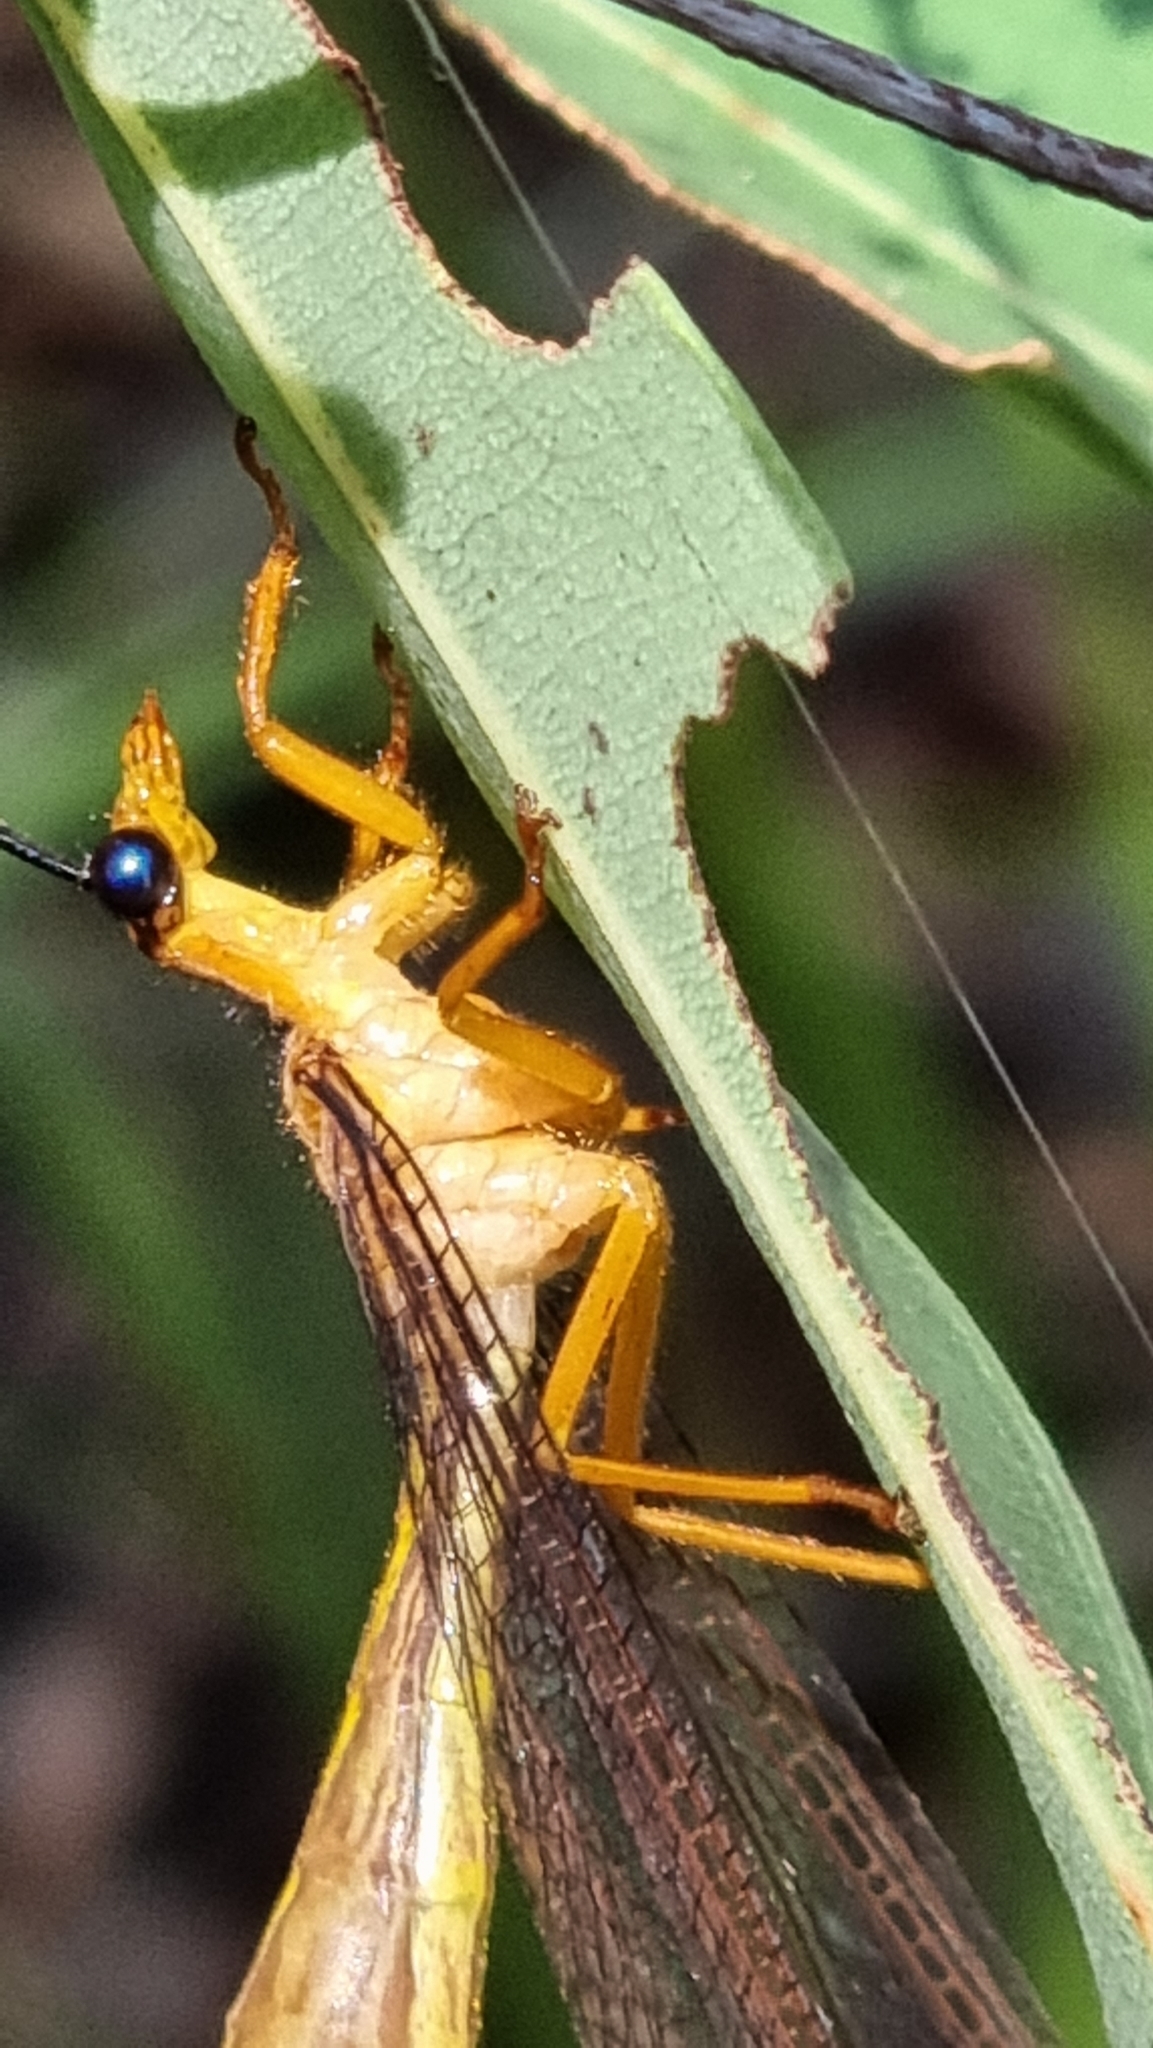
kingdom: Animalia
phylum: Arthropoda
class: Insecta
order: Neuroptera
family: Nymphidae
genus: Nymphes
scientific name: Nymphes myrmeleonoides
